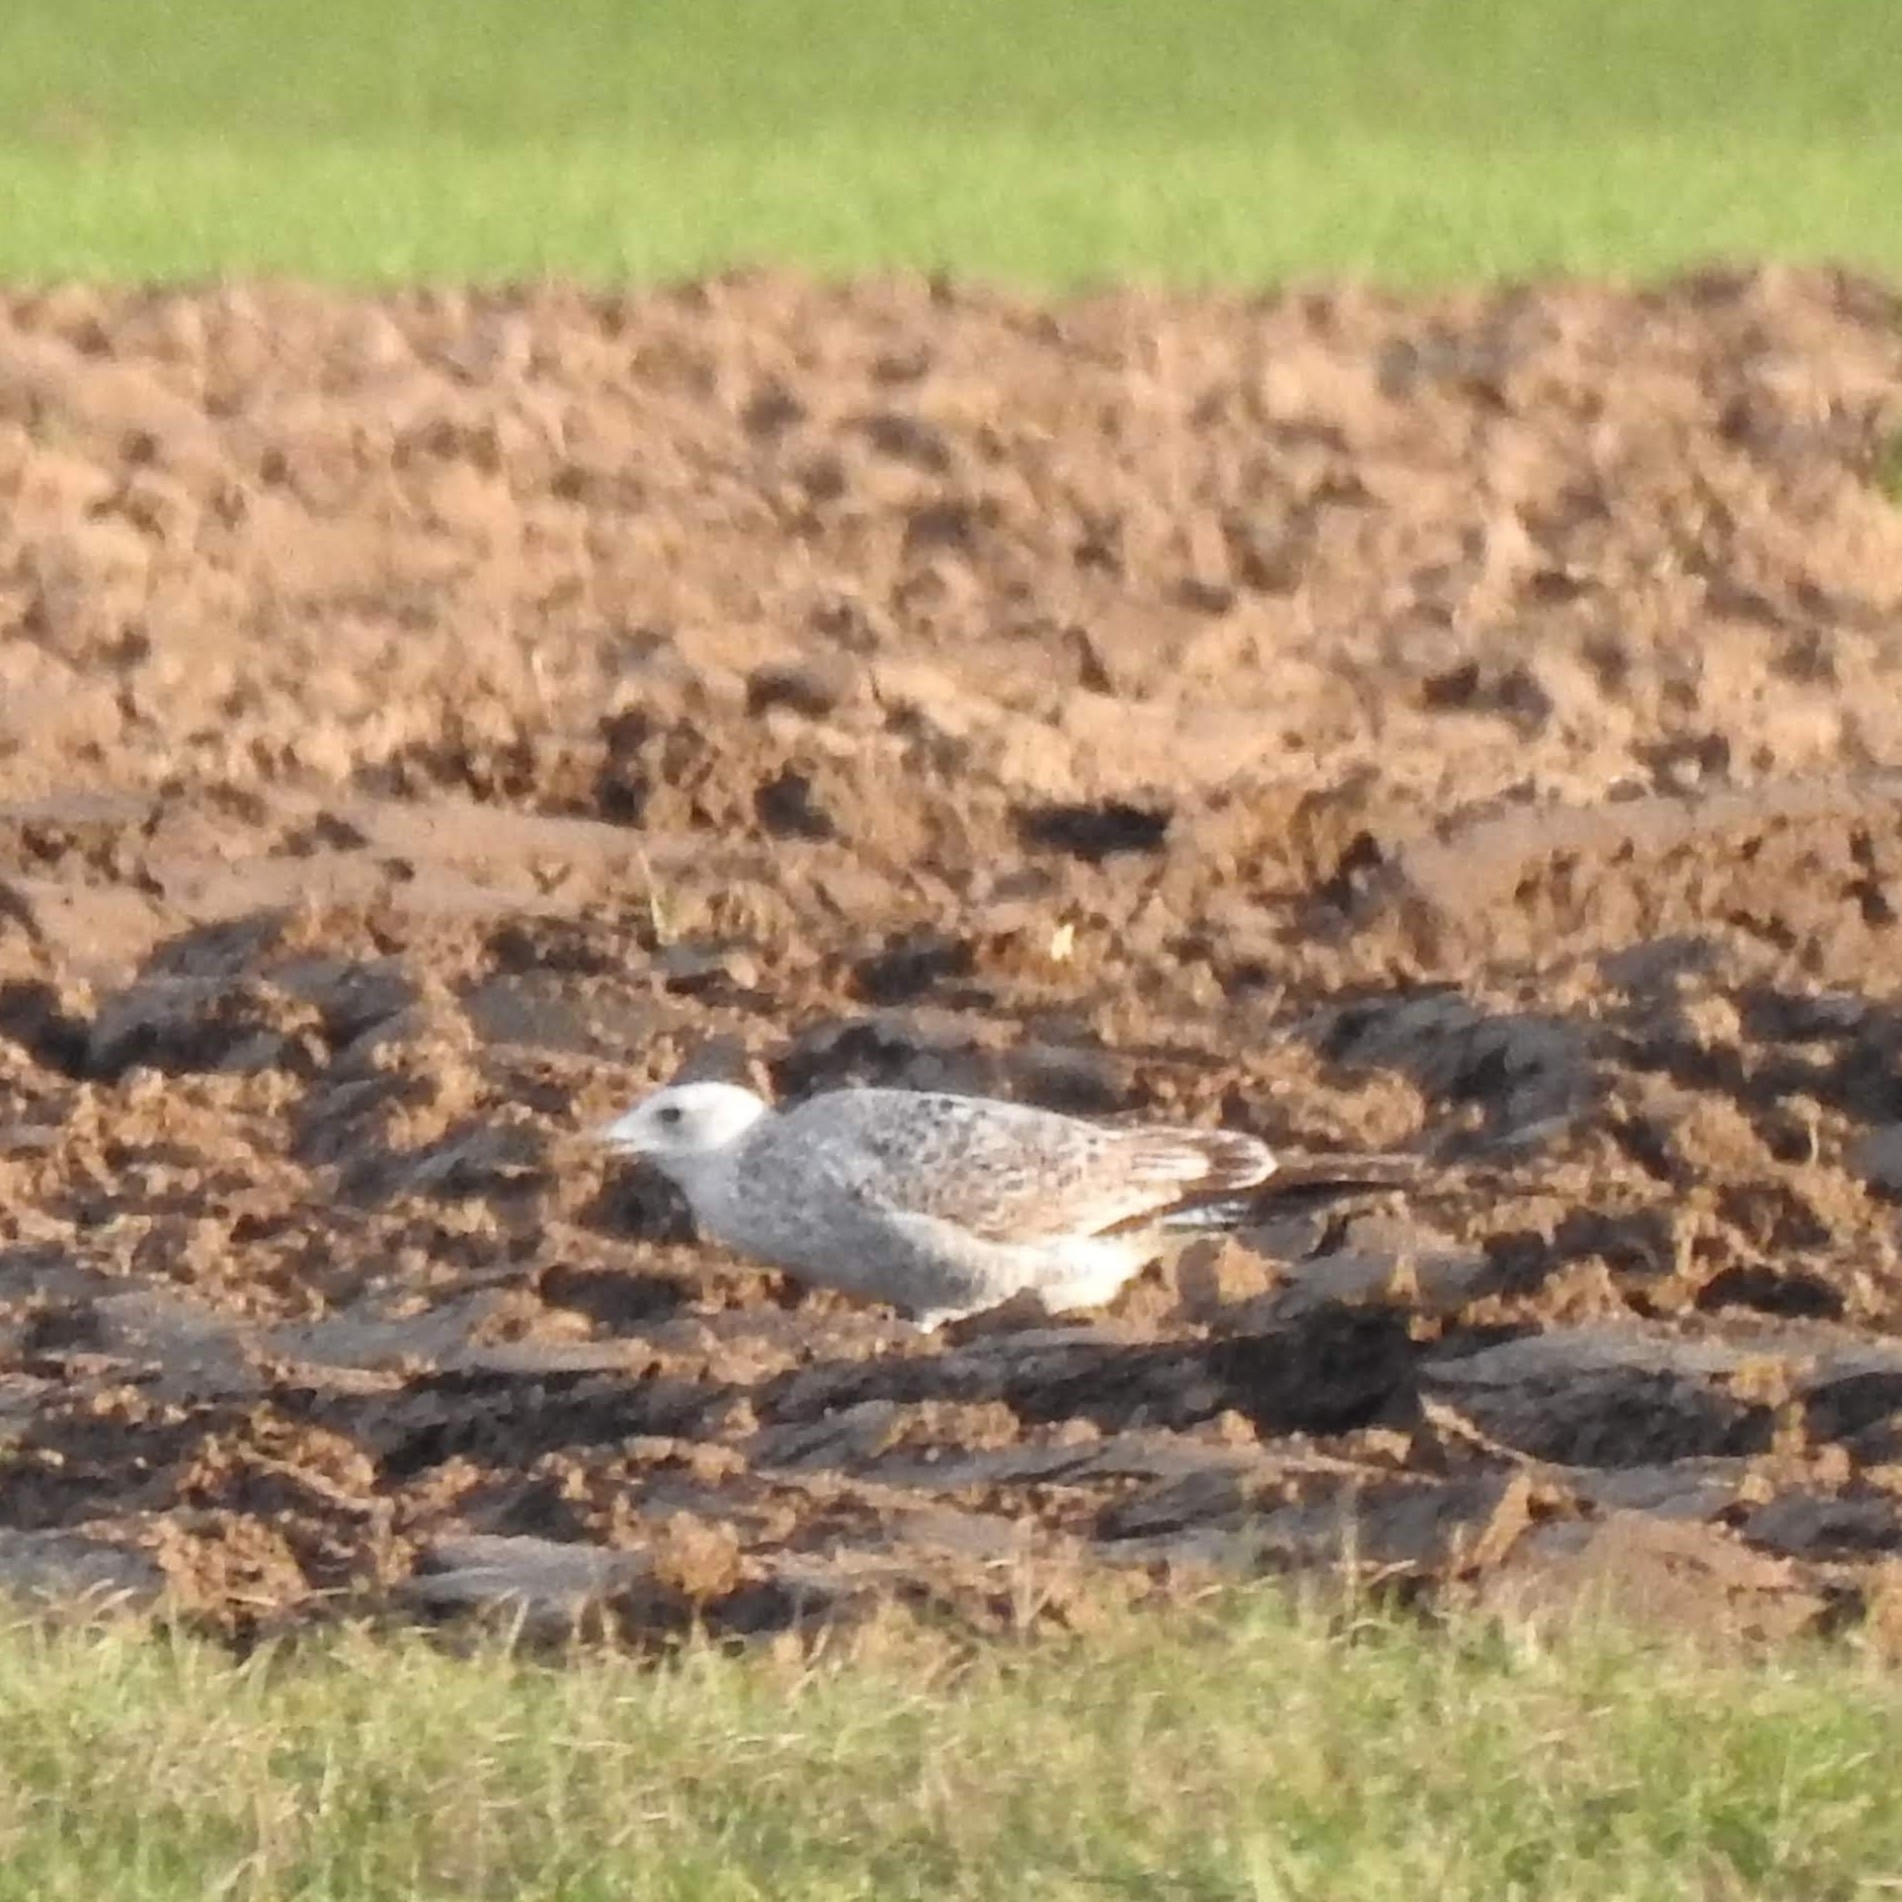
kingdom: Animalia
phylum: Chordata
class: Aves
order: Charadriiformes
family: Laridae
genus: Larus
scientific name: Larus cachinnans
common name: Caspian gull
